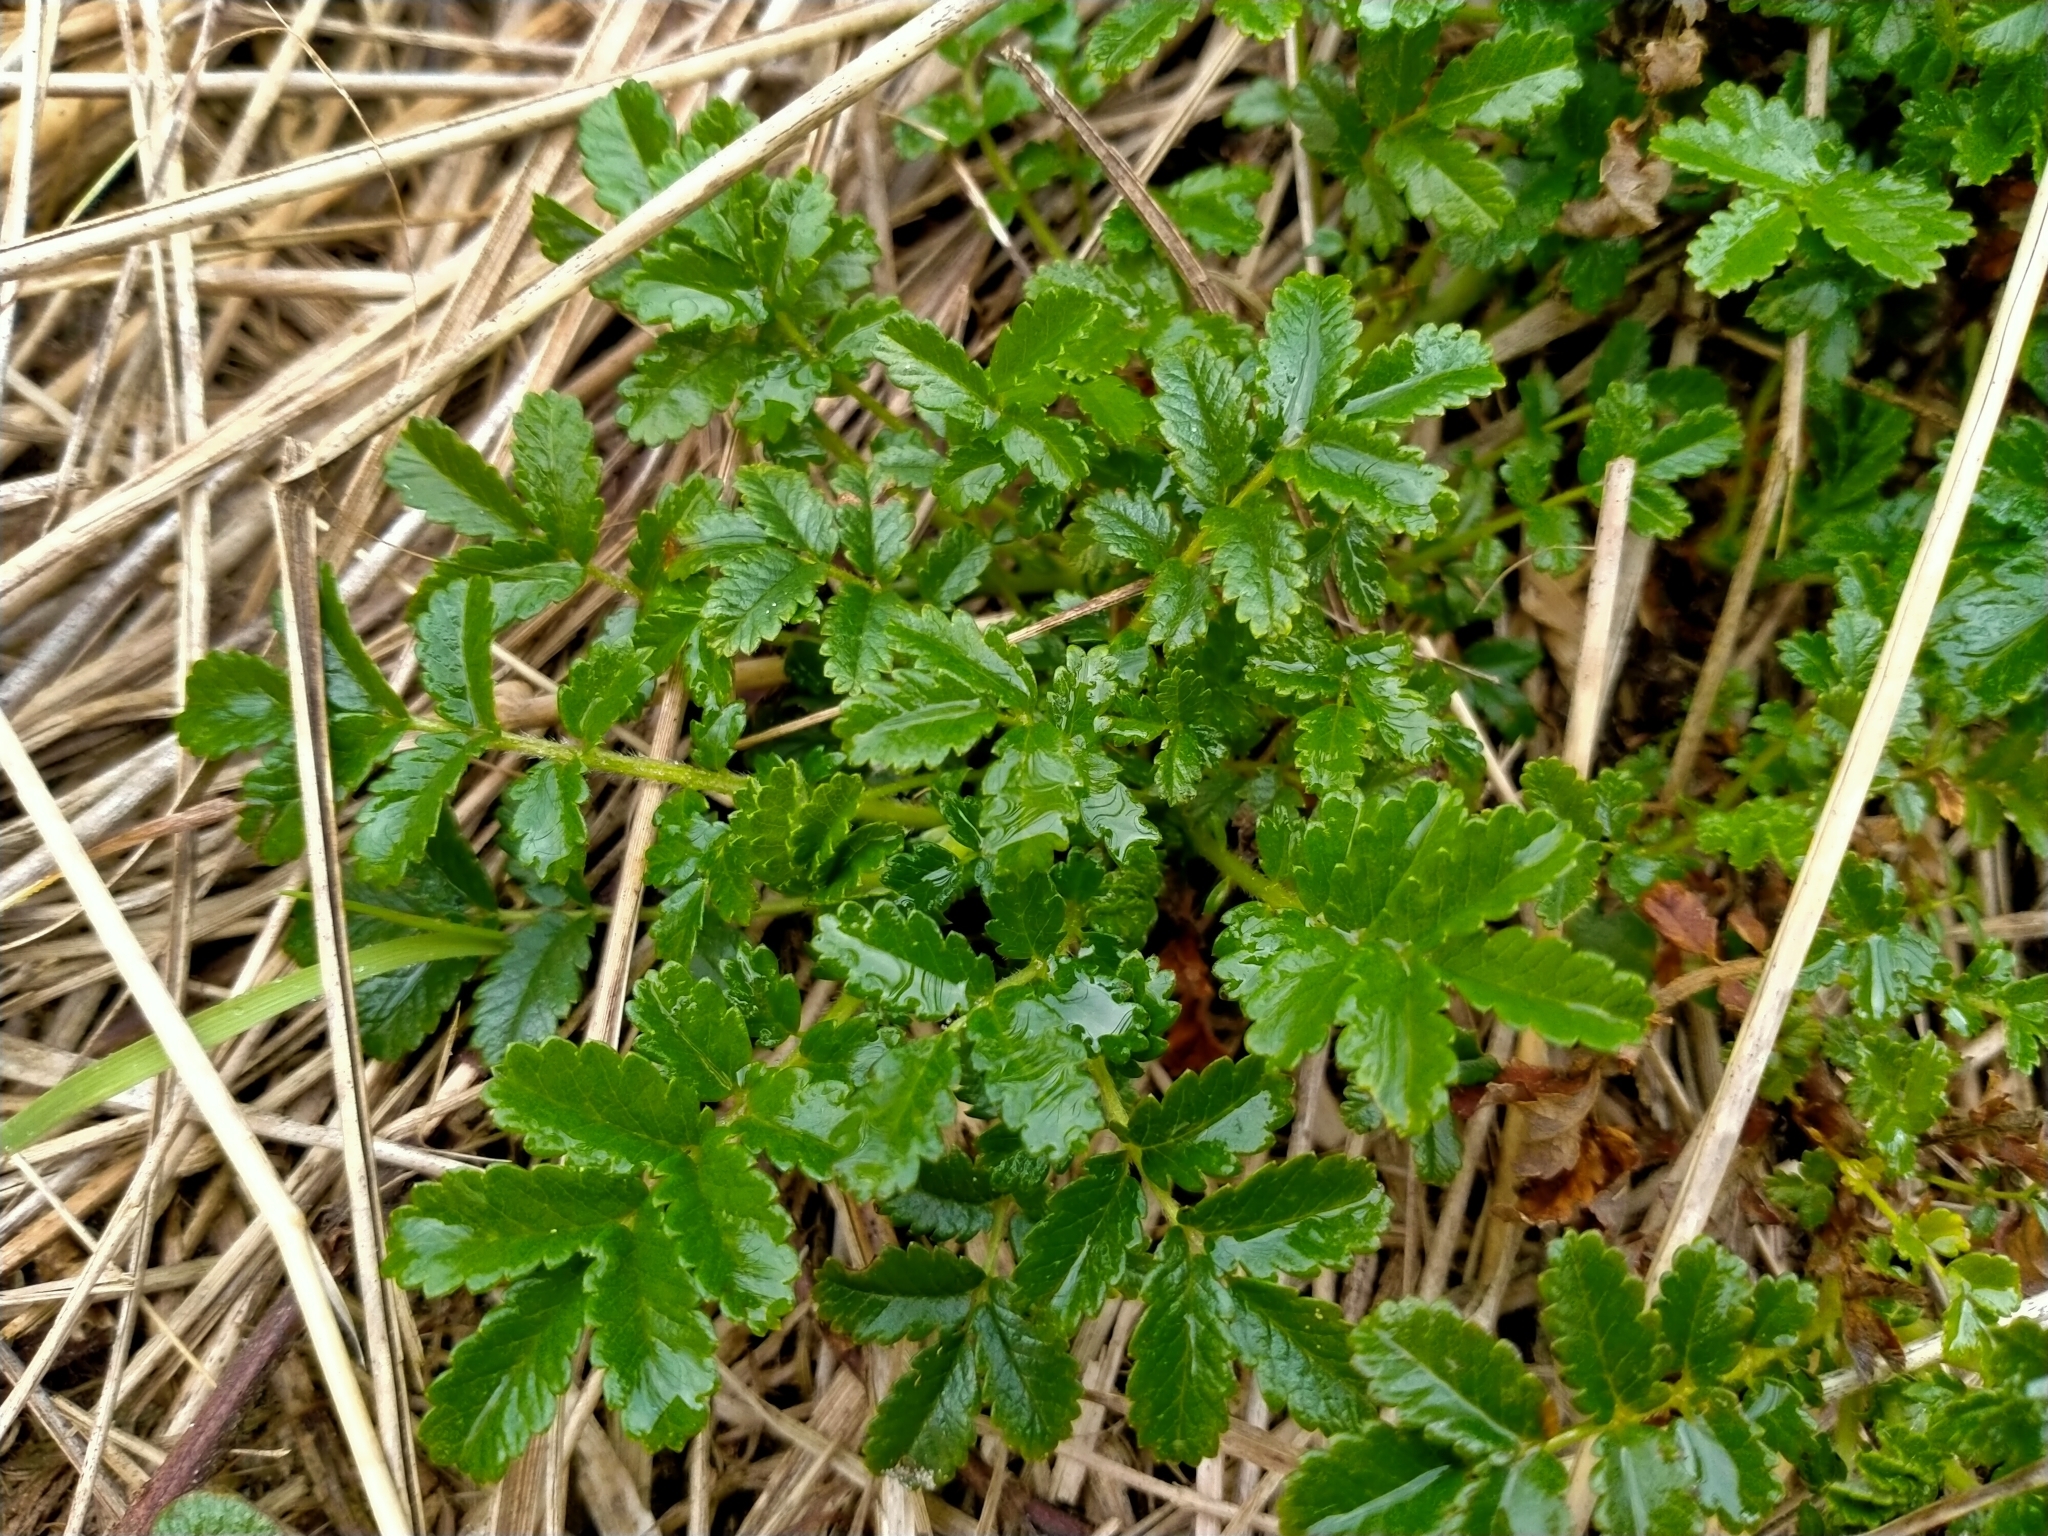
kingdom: Plantae
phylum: Tracheophyta
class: Magnoliopsida
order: Rosales
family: Rosaceae
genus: Acaena
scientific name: Acaena pallida
